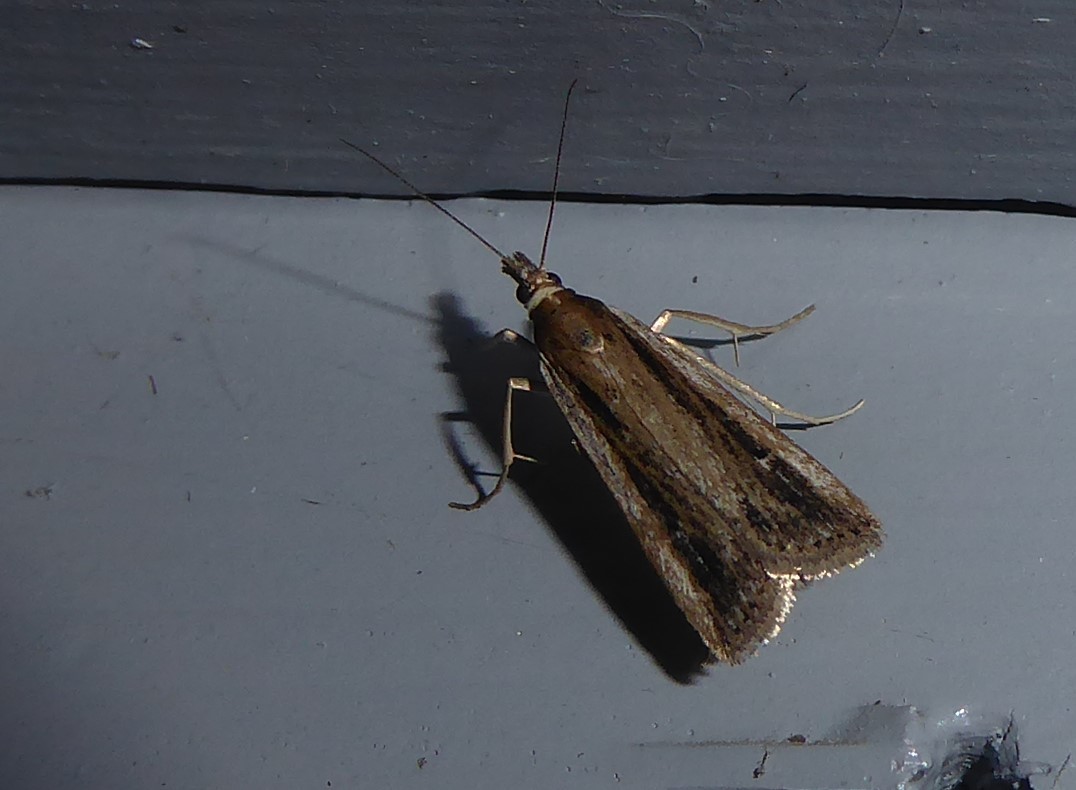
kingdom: Animalia
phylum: Arthropoda
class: Insecta
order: Lepidoptera
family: Crambidae
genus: Eudonia
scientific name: Eudonia sabulosella
